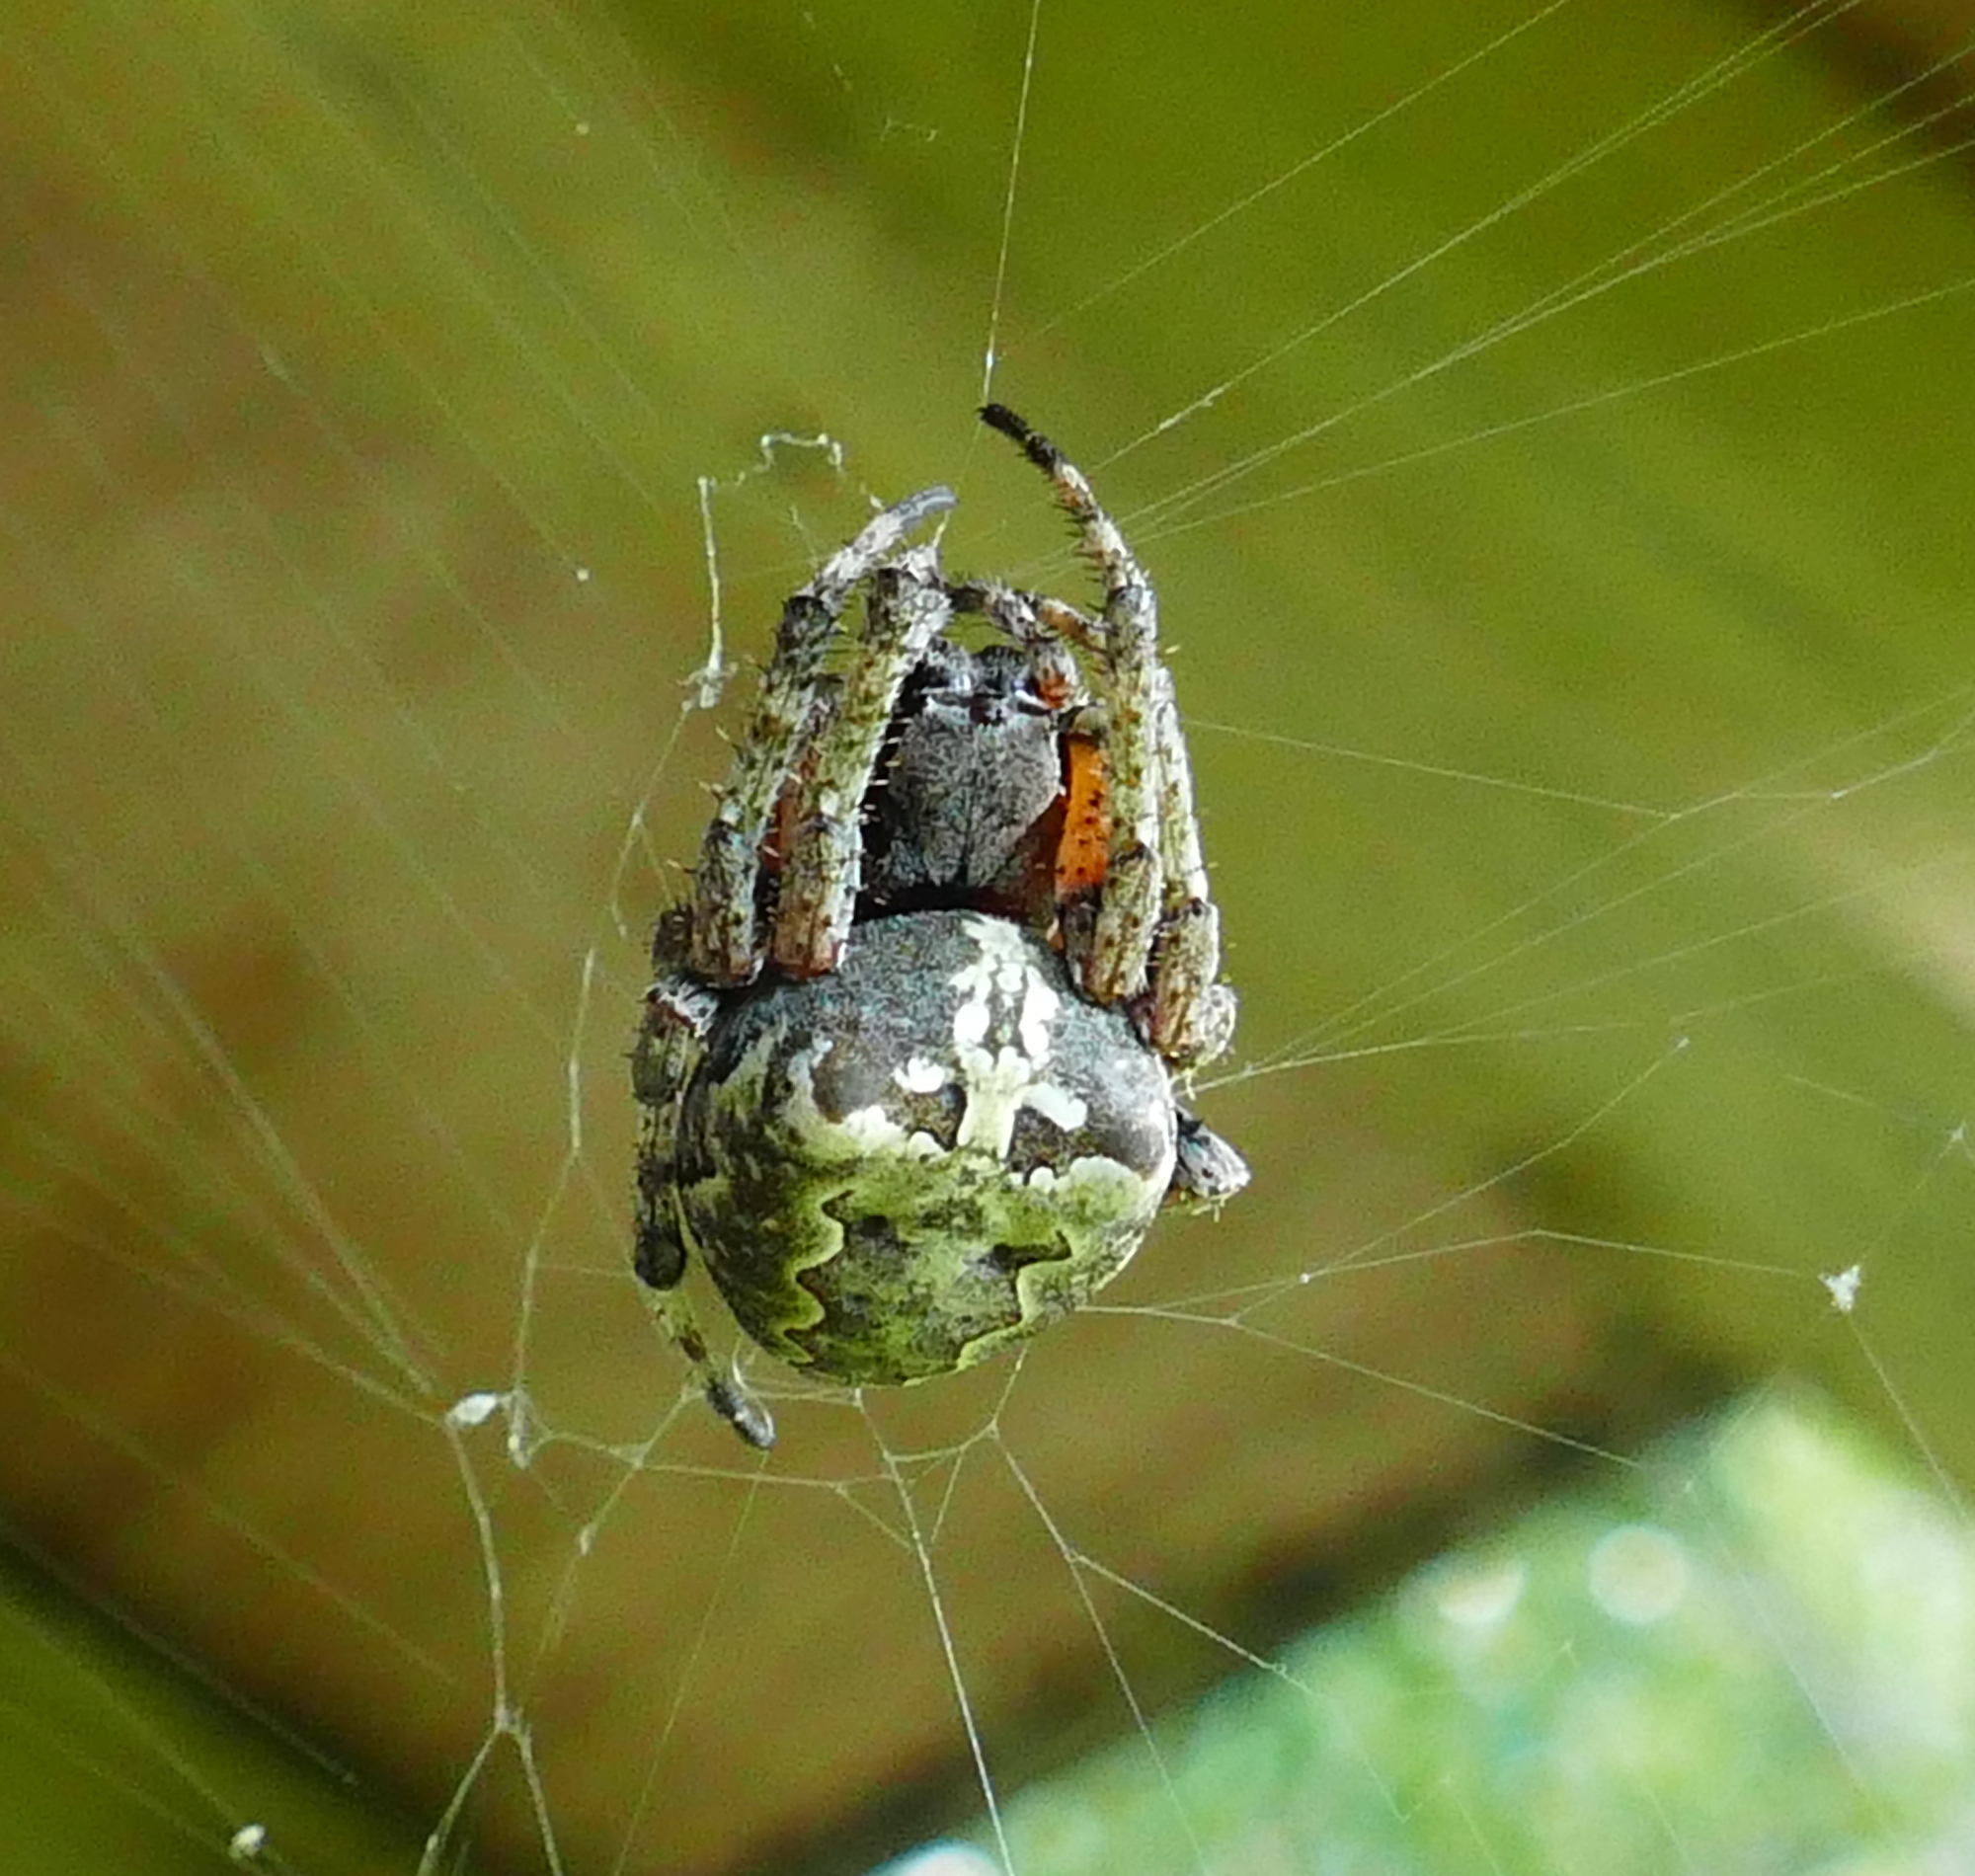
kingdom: Animalia
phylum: Arthropoda
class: Arachnida
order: Araneae
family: Araneidae
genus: Araneus
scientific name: Araneus bicentenarius
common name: Giant lichen orbweaver
